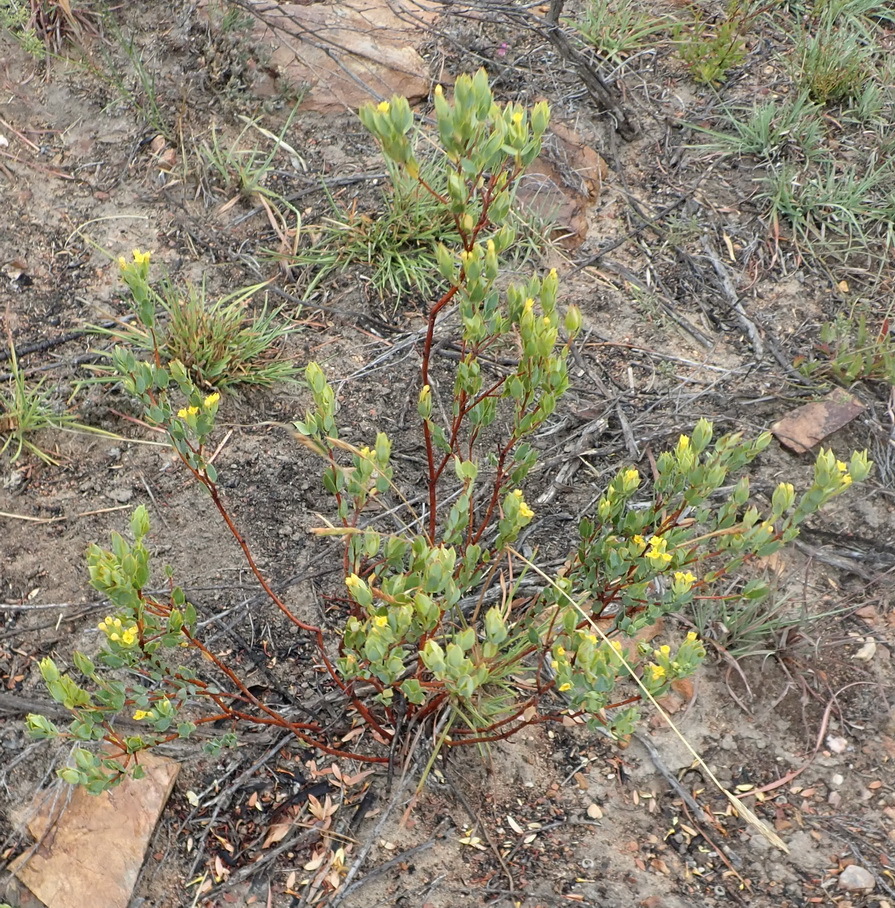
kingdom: Plantae
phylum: Tracheophyta
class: Magnoliopsida
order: Malvales
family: Thymelaeaceae
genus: Gnidia
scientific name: Gnidia juniperifolia
